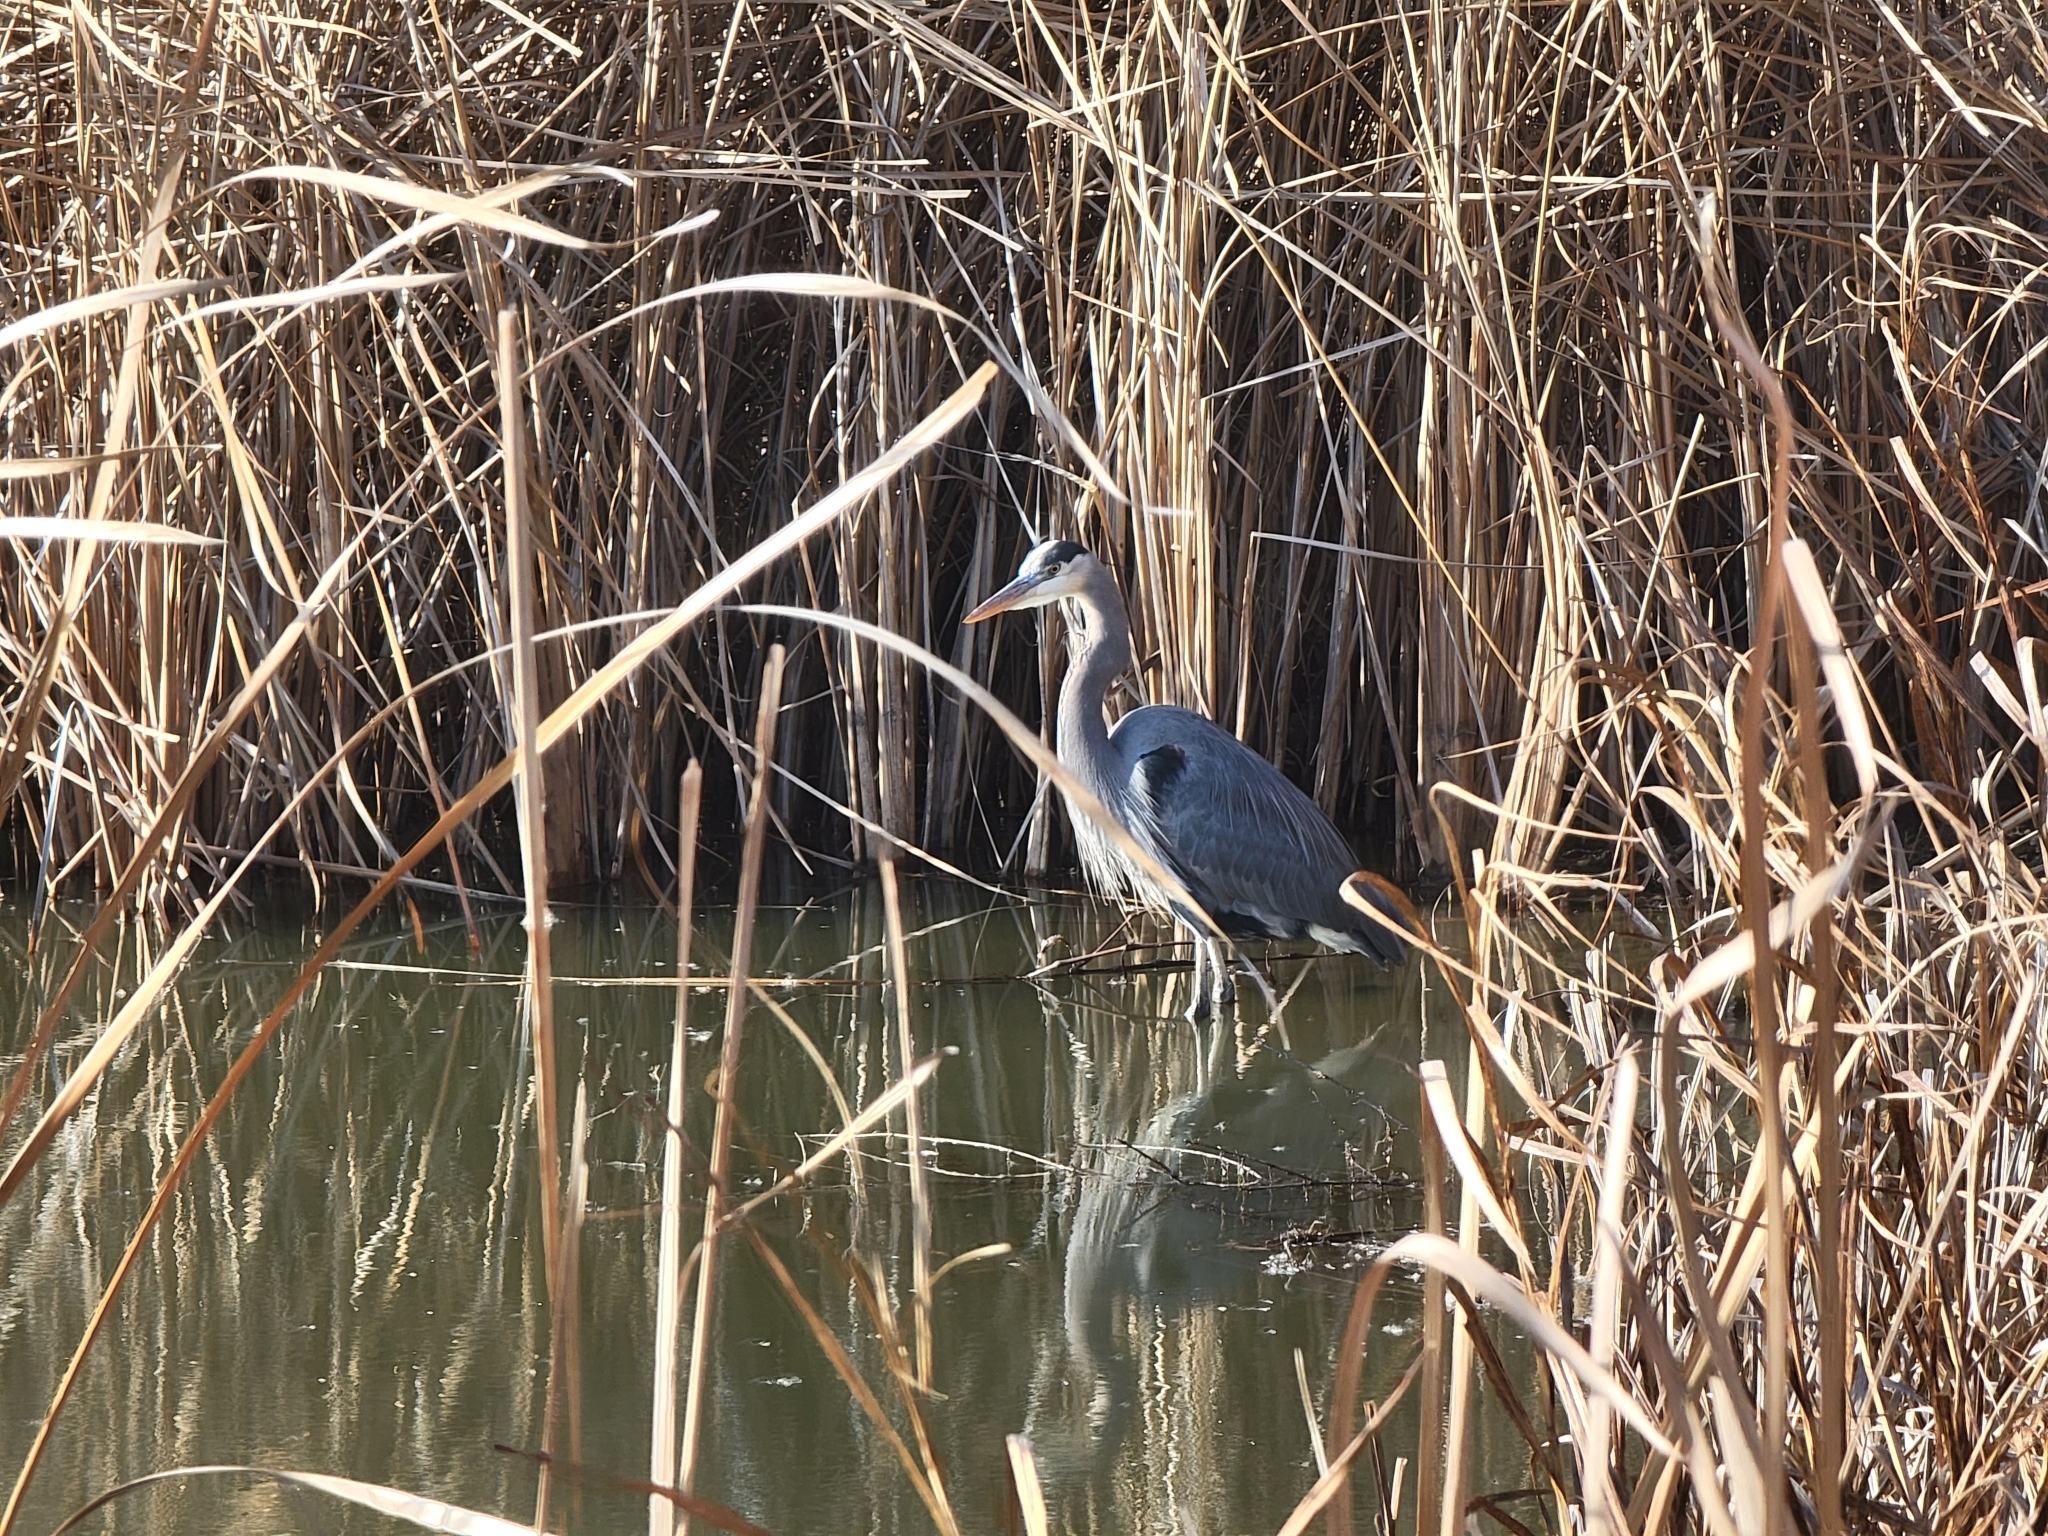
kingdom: Animalia
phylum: Chordata
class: Aves
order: Pelecaniformes
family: Ardeidae
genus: Ardea
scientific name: Ardea herodias
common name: Great blue heron
